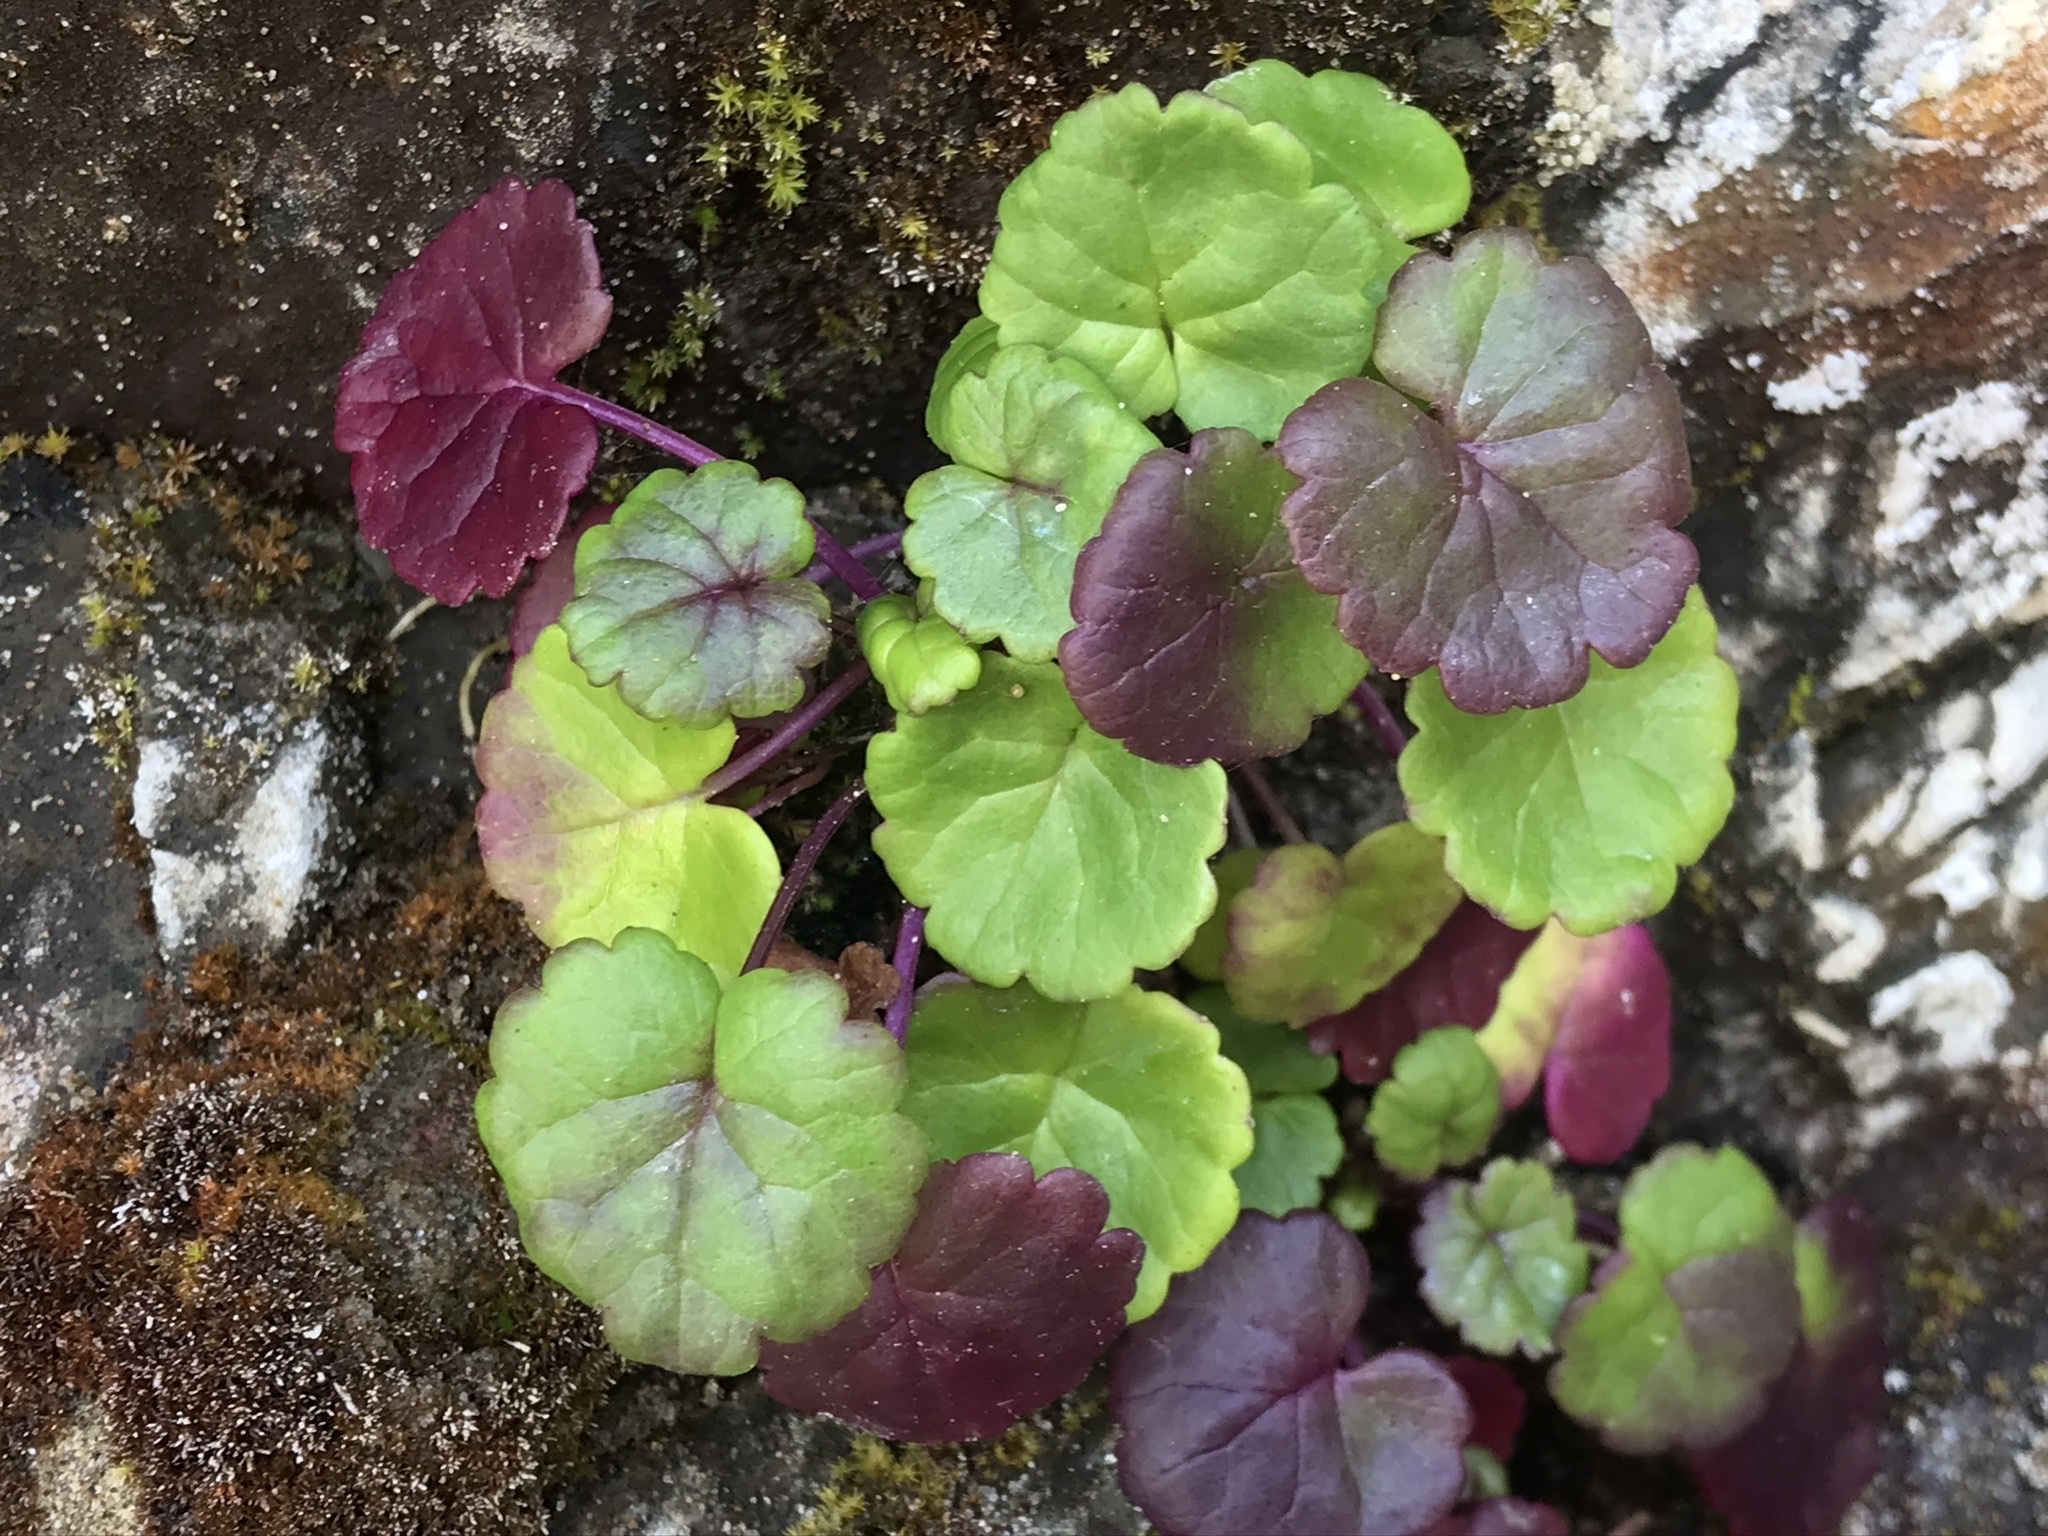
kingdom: Plantae
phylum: Tracheophyta
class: Magnoliopsida
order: Lamiales
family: Plantaginaceae
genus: Cymbalaria
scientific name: Cymbalaria muralis
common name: Ivy-leaved toadflax
